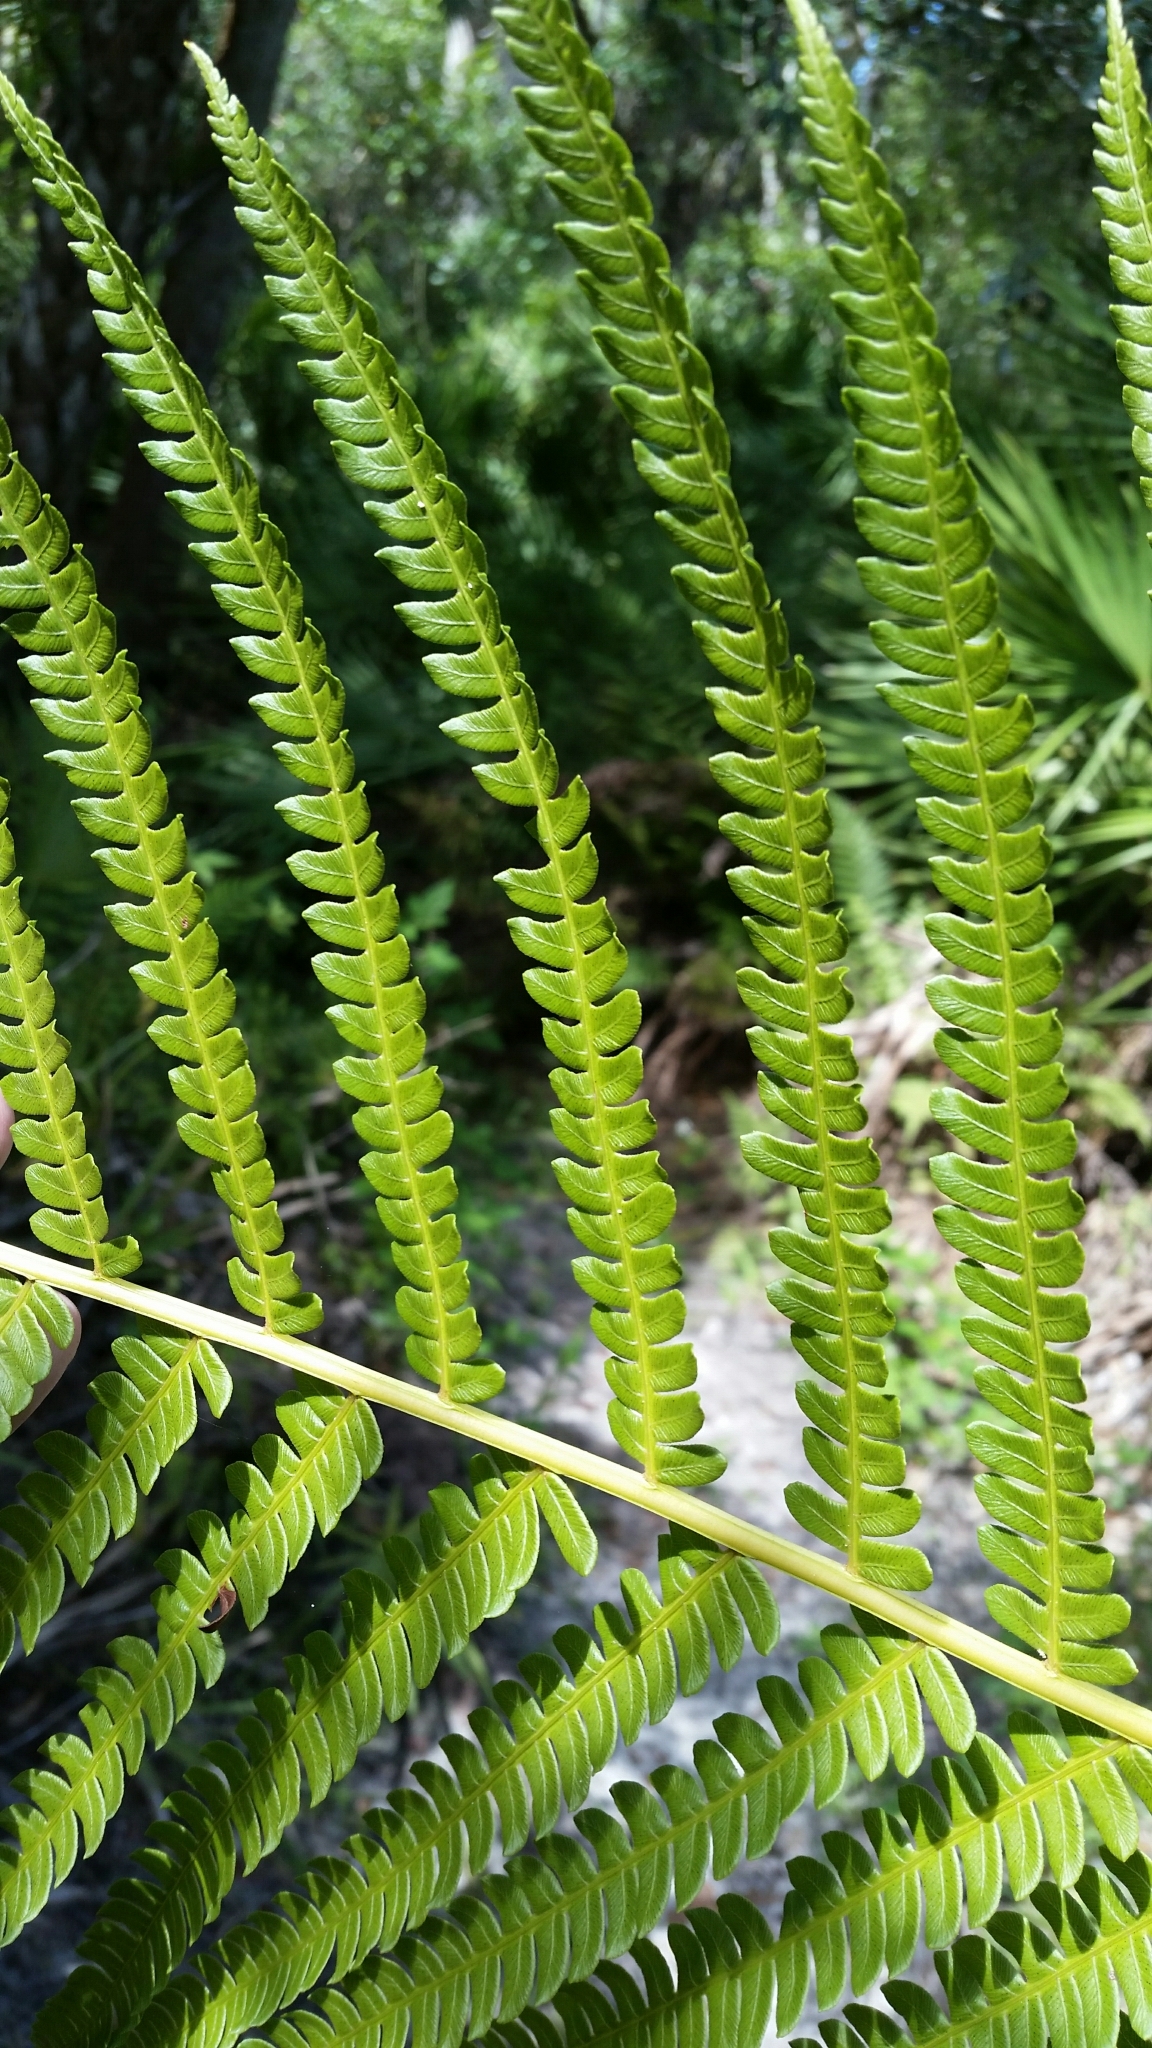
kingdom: Plantae
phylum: Tracheophyta
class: Polypodiopsida
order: Osmundales
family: Osmundaceae
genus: Osmundastrum
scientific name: Osmundastrum cinnamomeum
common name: Cinnamon fern
